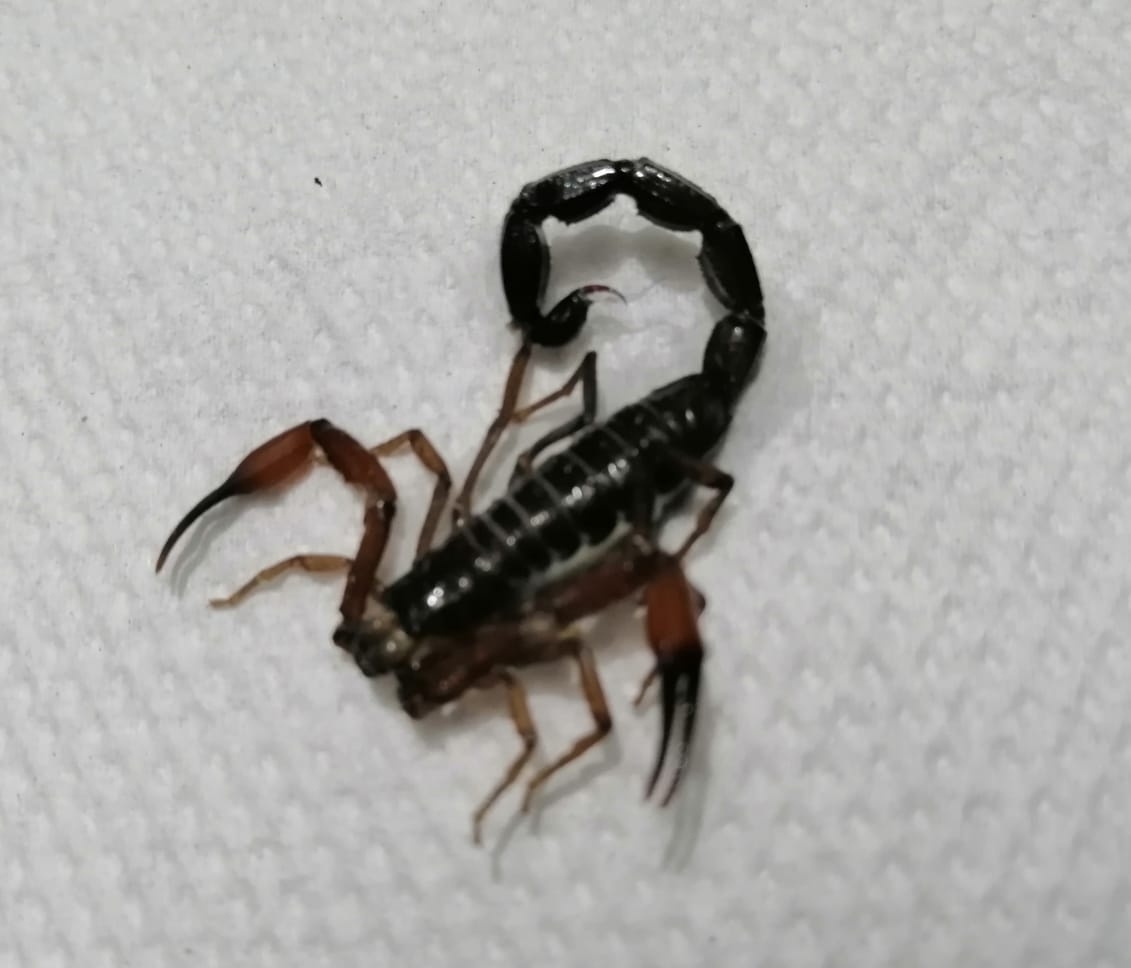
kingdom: Animalia
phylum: Arthropoda
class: Arachnida
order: Scorpiones
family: Buthidae
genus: Tityus
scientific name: Tityus macrochirus
